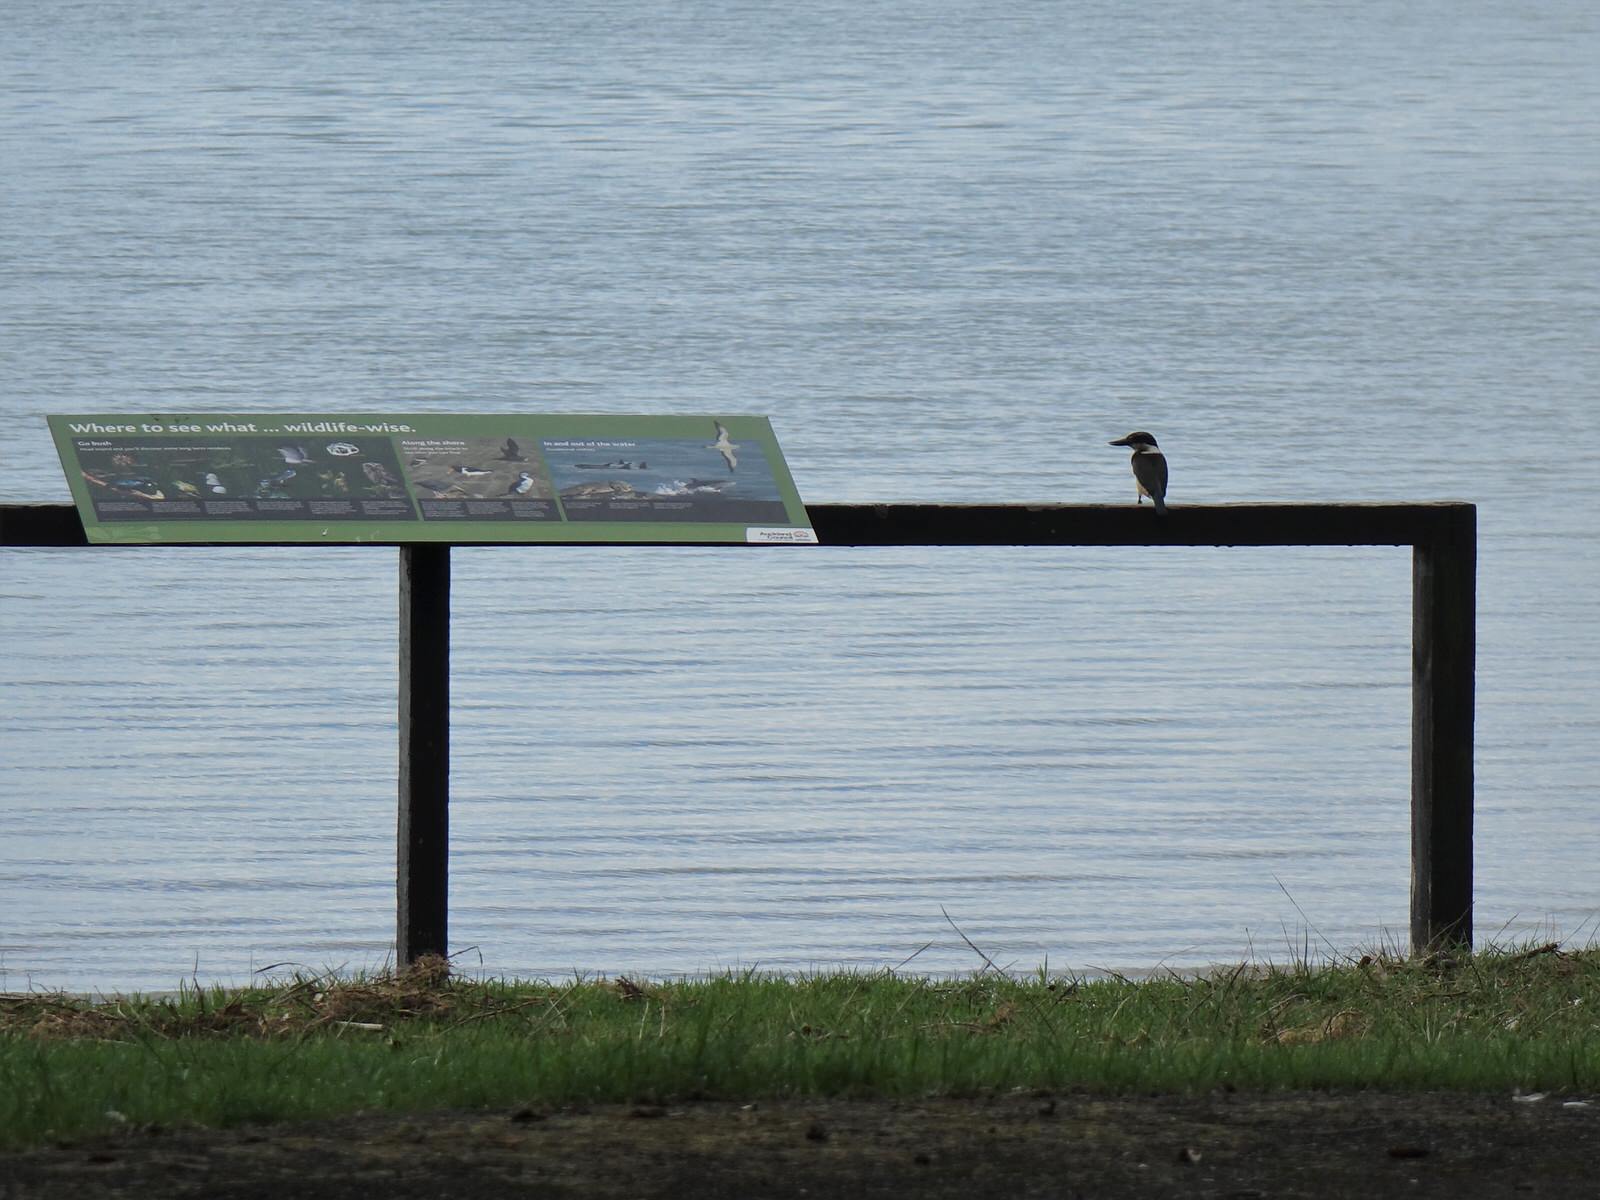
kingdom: Animalia
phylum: Chordata
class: Aves
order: Coraciiformes
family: Alcedinidae
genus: Todiramphus
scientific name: Todiramphus sanctus
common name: Sacred kingfisher
